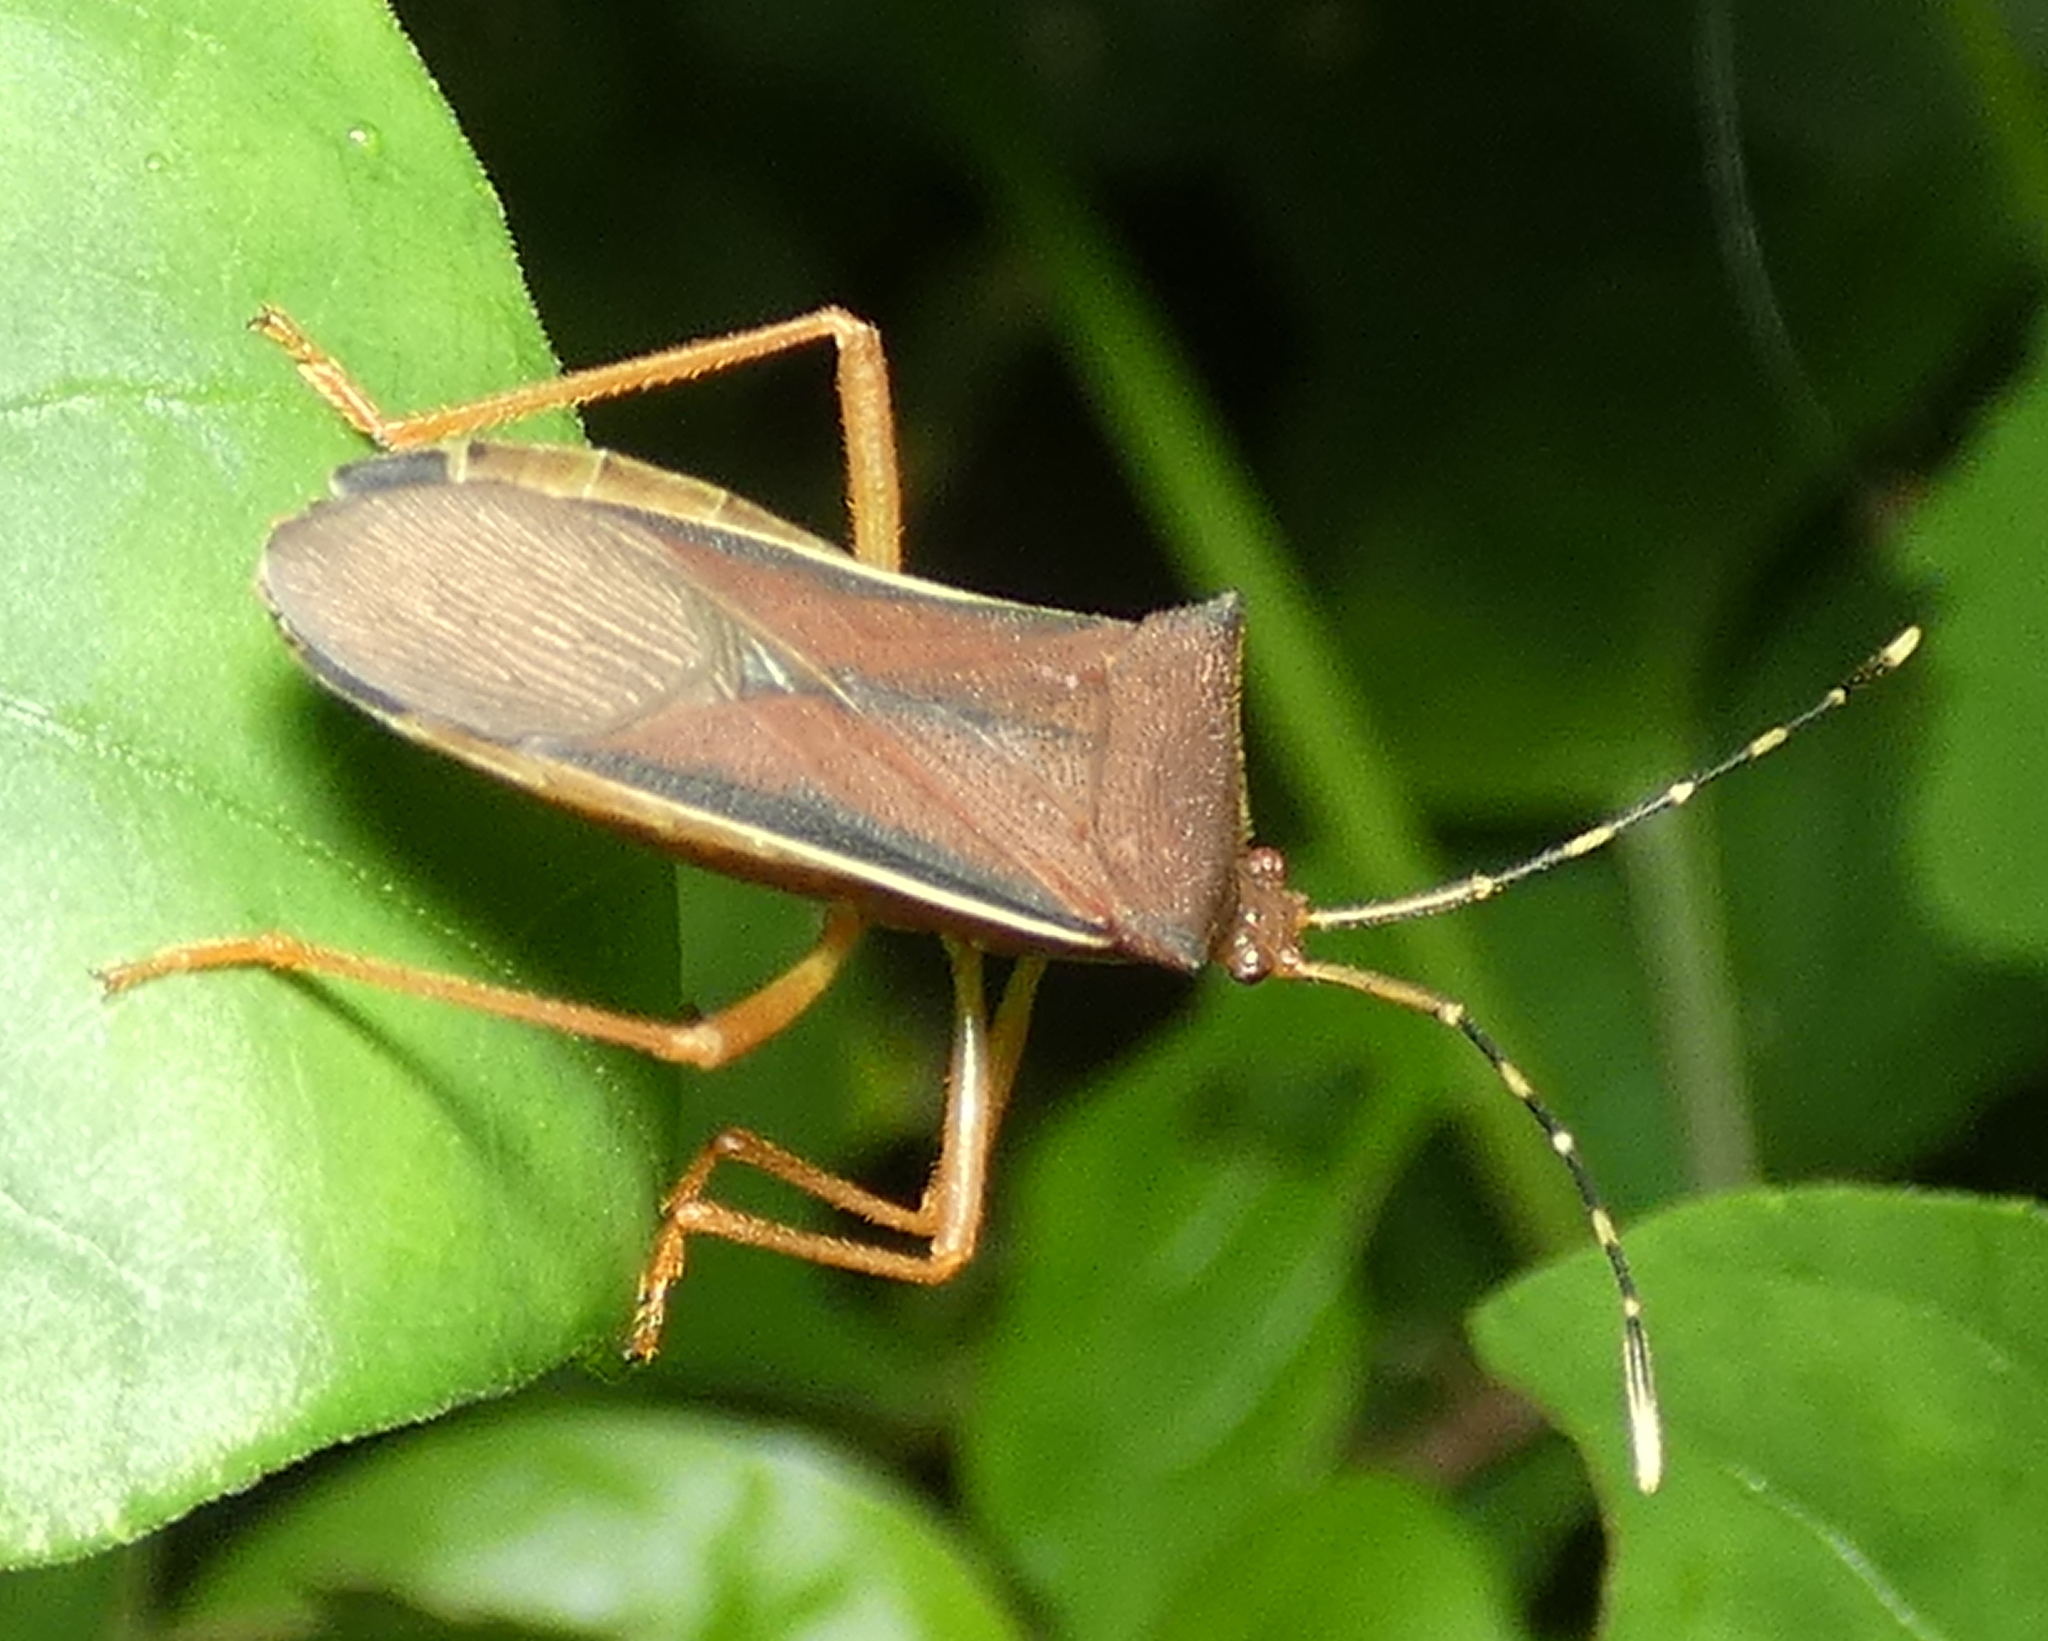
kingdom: Animalia
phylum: Arthropoda
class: Insecta
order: Hemiptera
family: Coreidae
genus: Anasa
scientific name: Anasa varicornis
